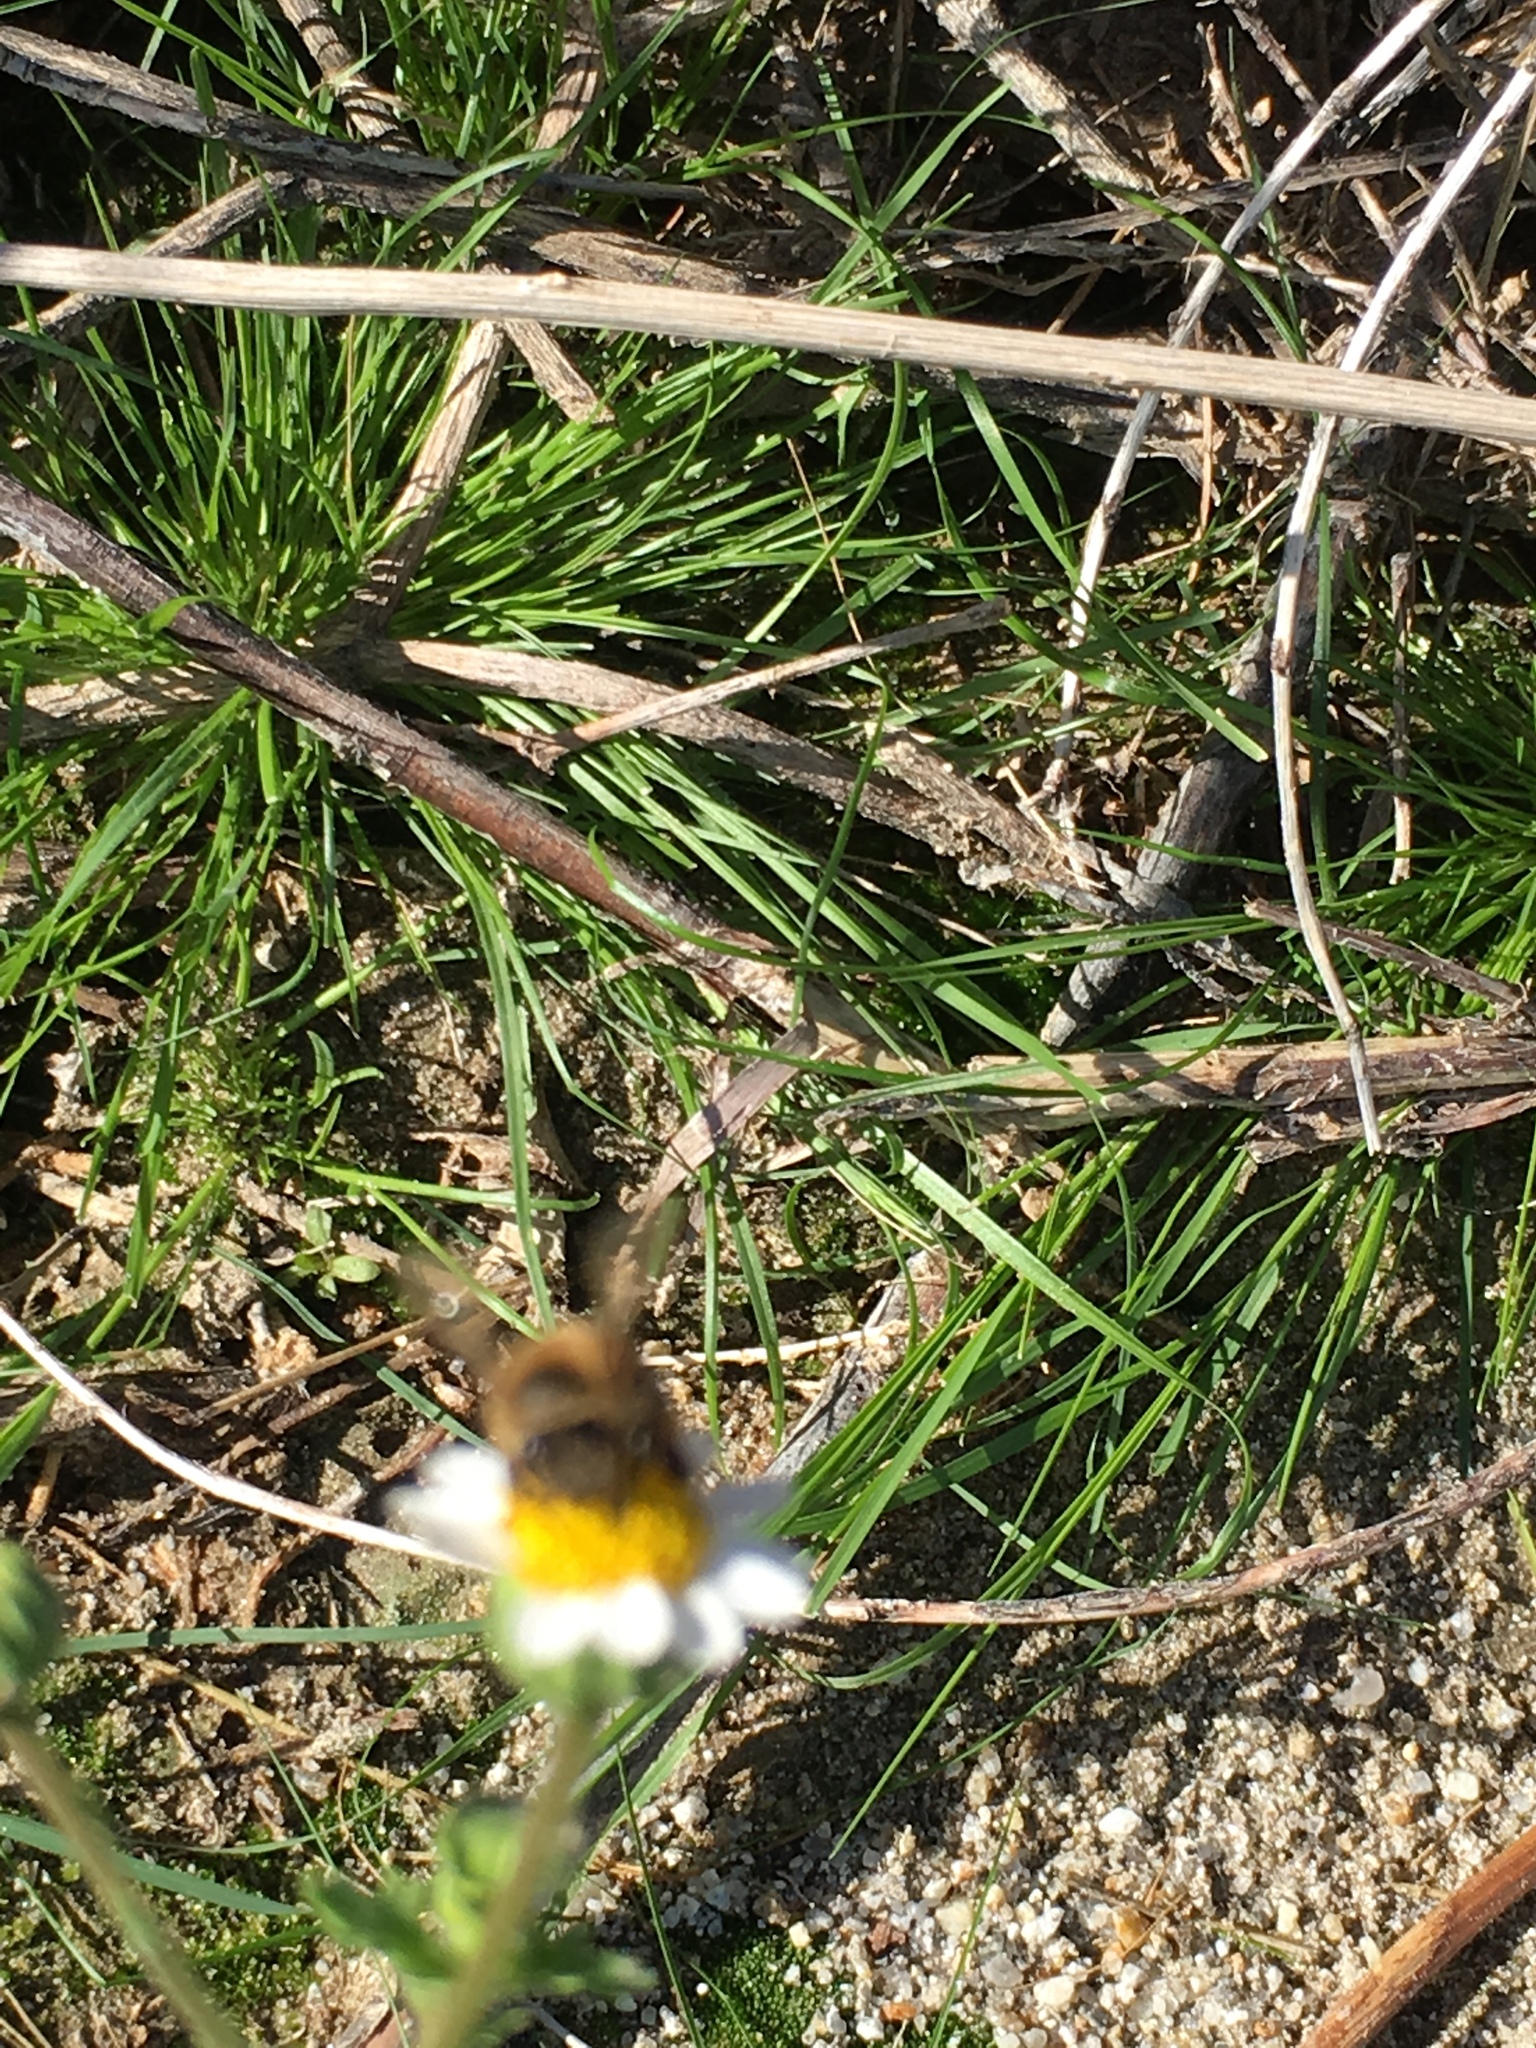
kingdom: Animalia
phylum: Arthropoda
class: Insecta
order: Hymenoptera
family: Apidae
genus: Apis
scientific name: Apis mellifera
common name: Honey bee
